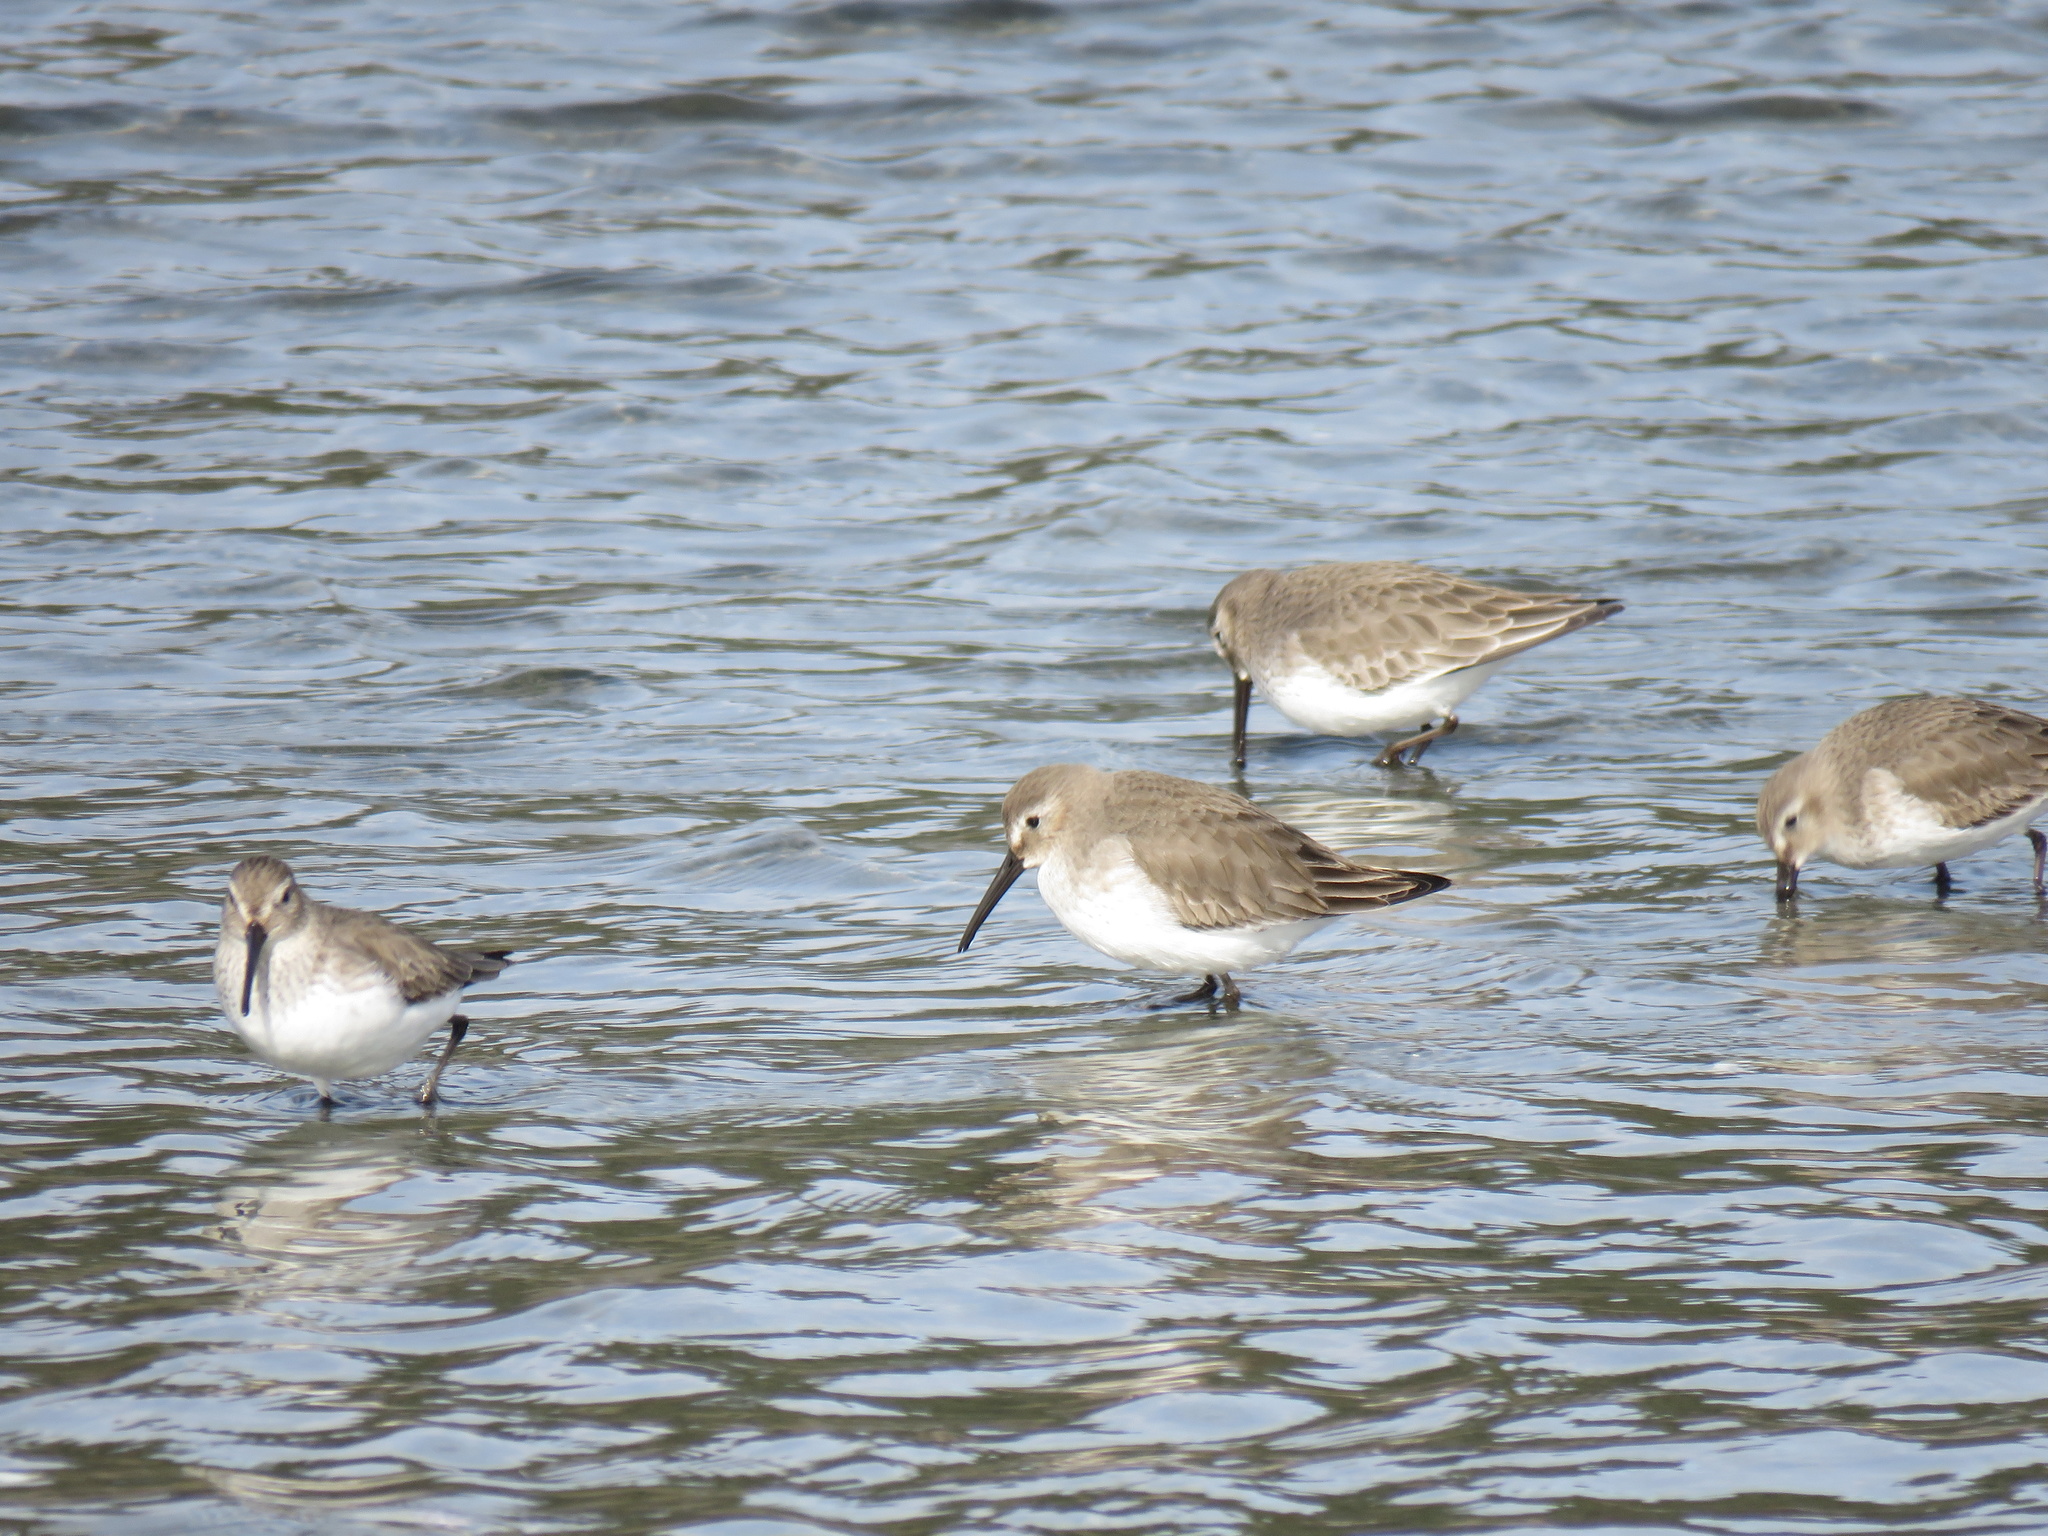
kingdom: Animalia
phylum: Chordata
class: Aves
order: Charadriiformes
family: Scolopacidae
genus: Calidris
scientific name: Calidris alpina
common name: Dunlin
